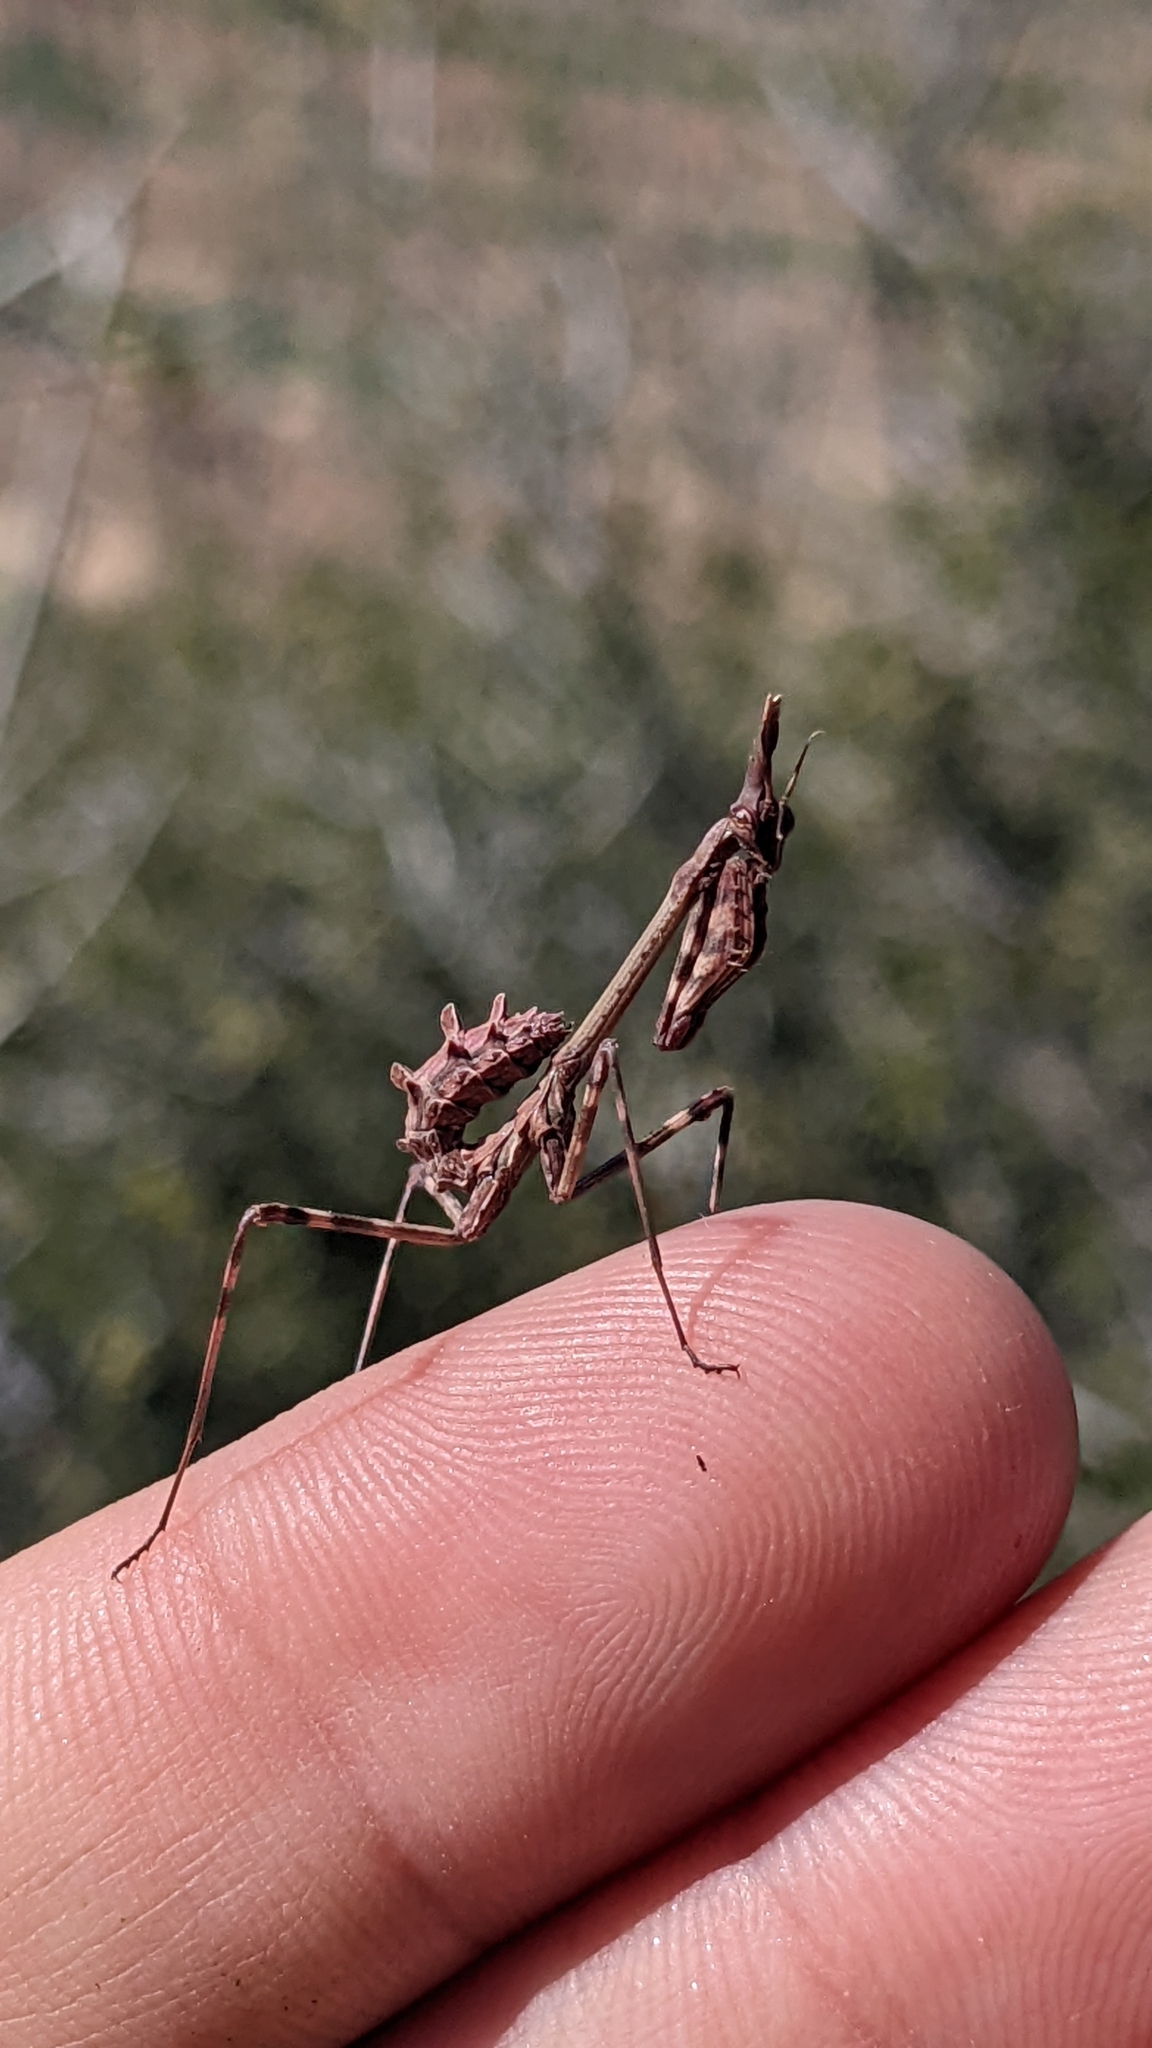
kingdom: Animalia
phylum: Arthropoda
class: Insecta
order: Mantodea
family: Empusidae
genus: Empusa
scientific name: Empusa pennata
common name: Conehead mantis
